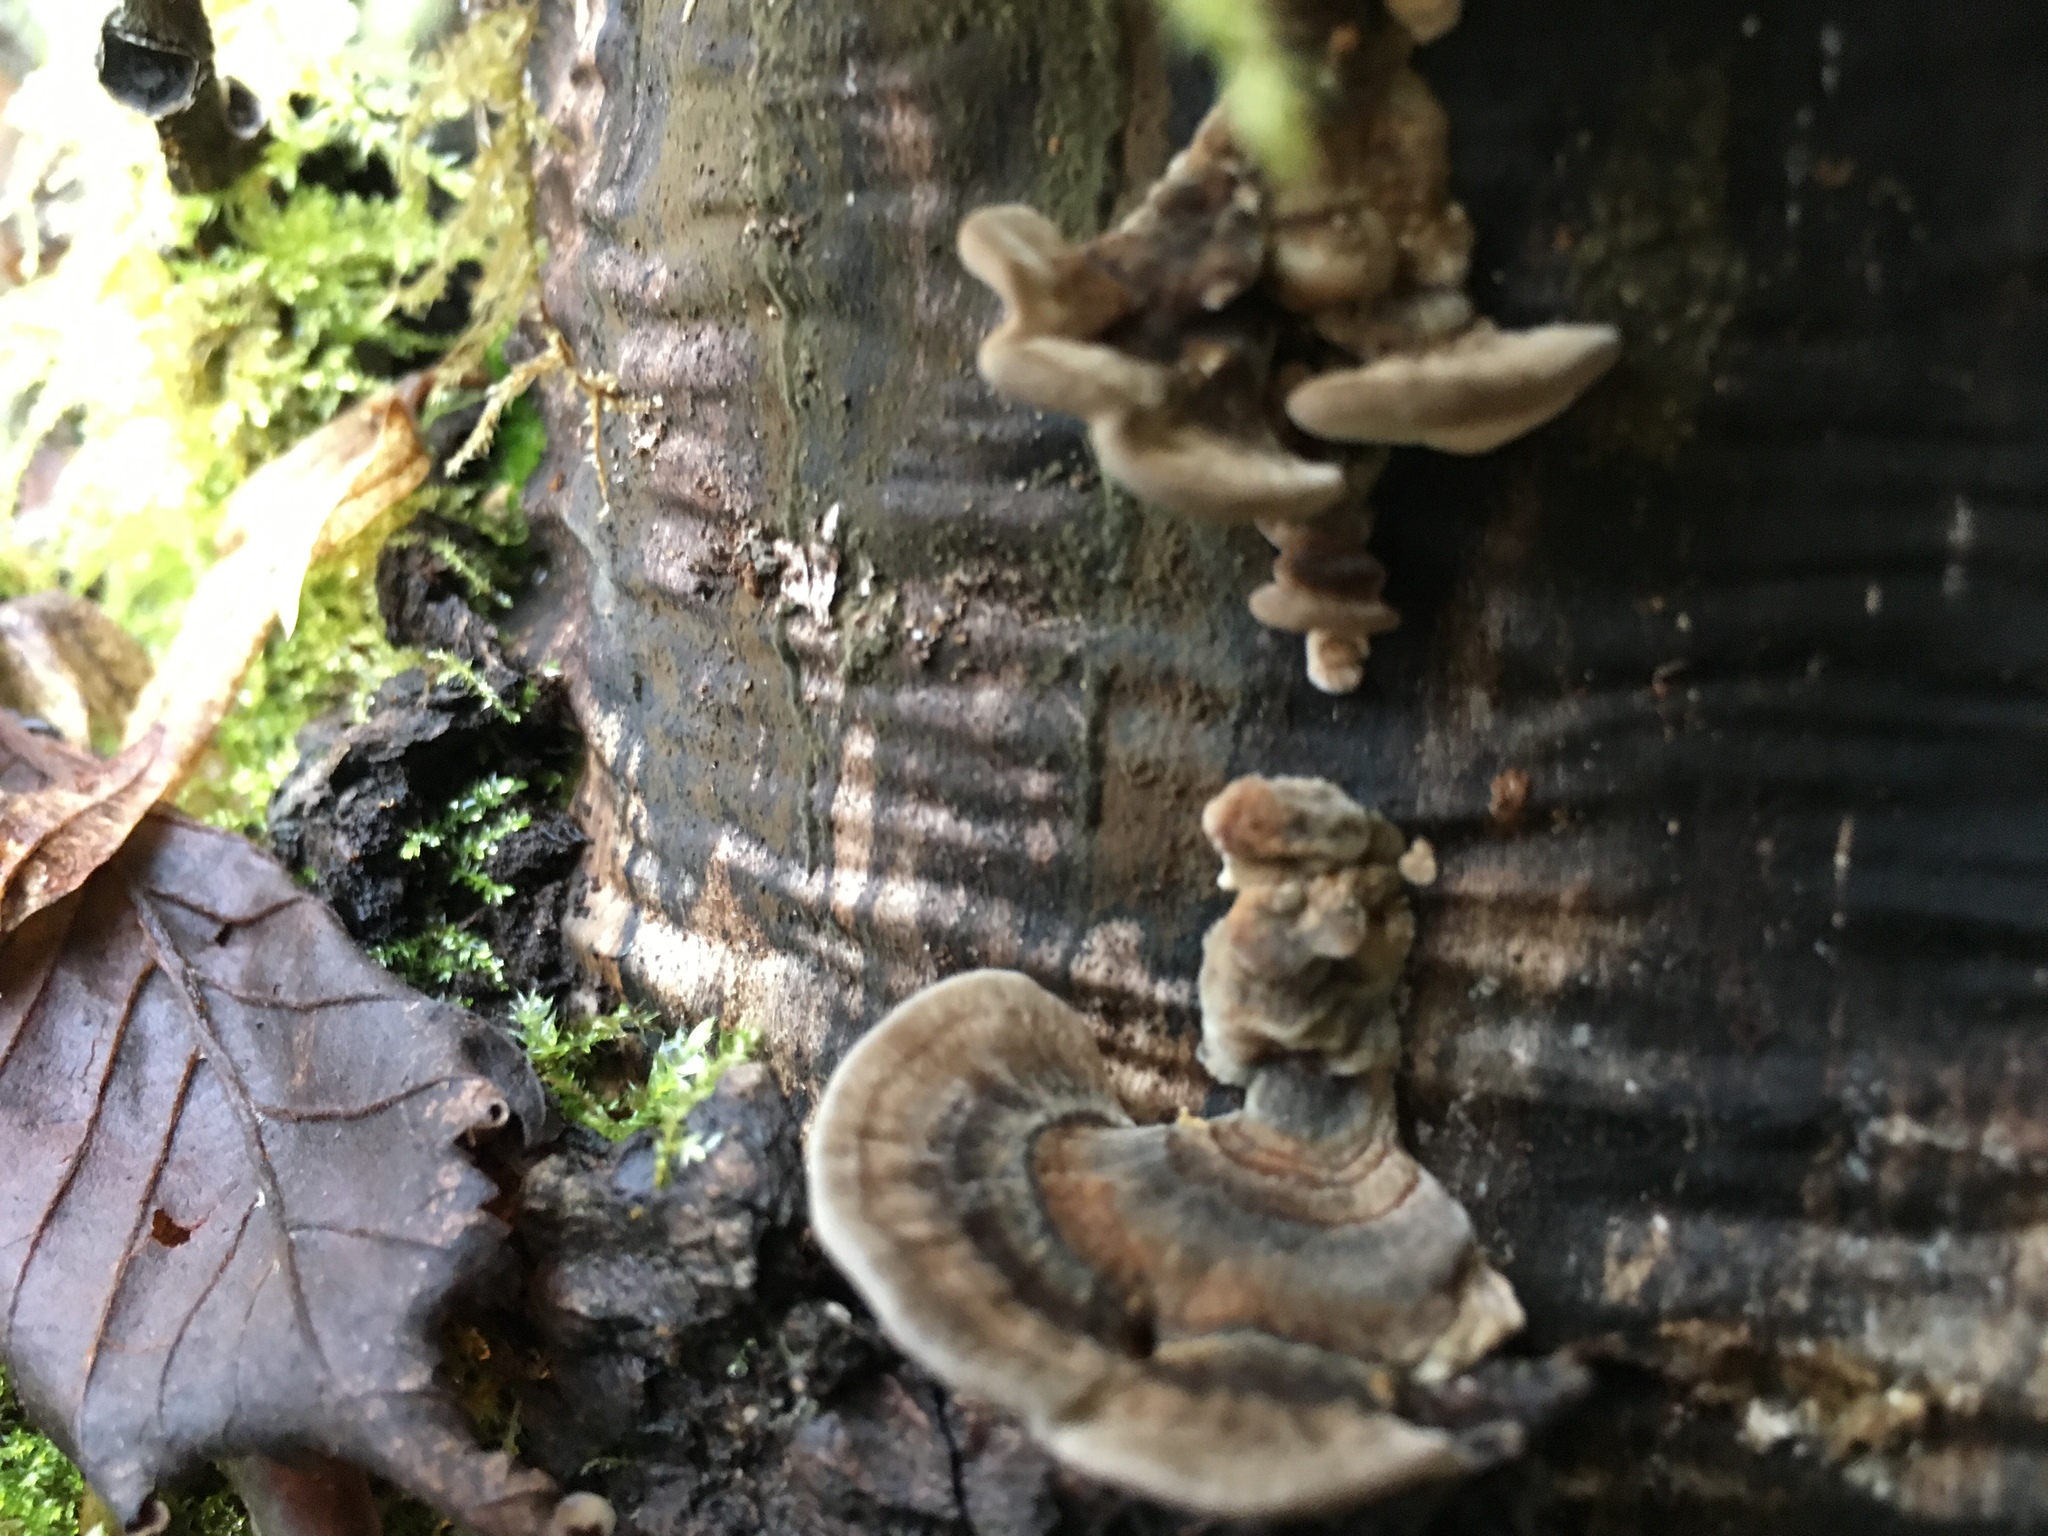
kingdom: Fungi
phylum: Basidiomycota
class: Agaricomycetes
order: Polyporales
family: Polyporaceae
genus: Trametes
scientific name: Trametes versicolor
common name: Turkeytail
